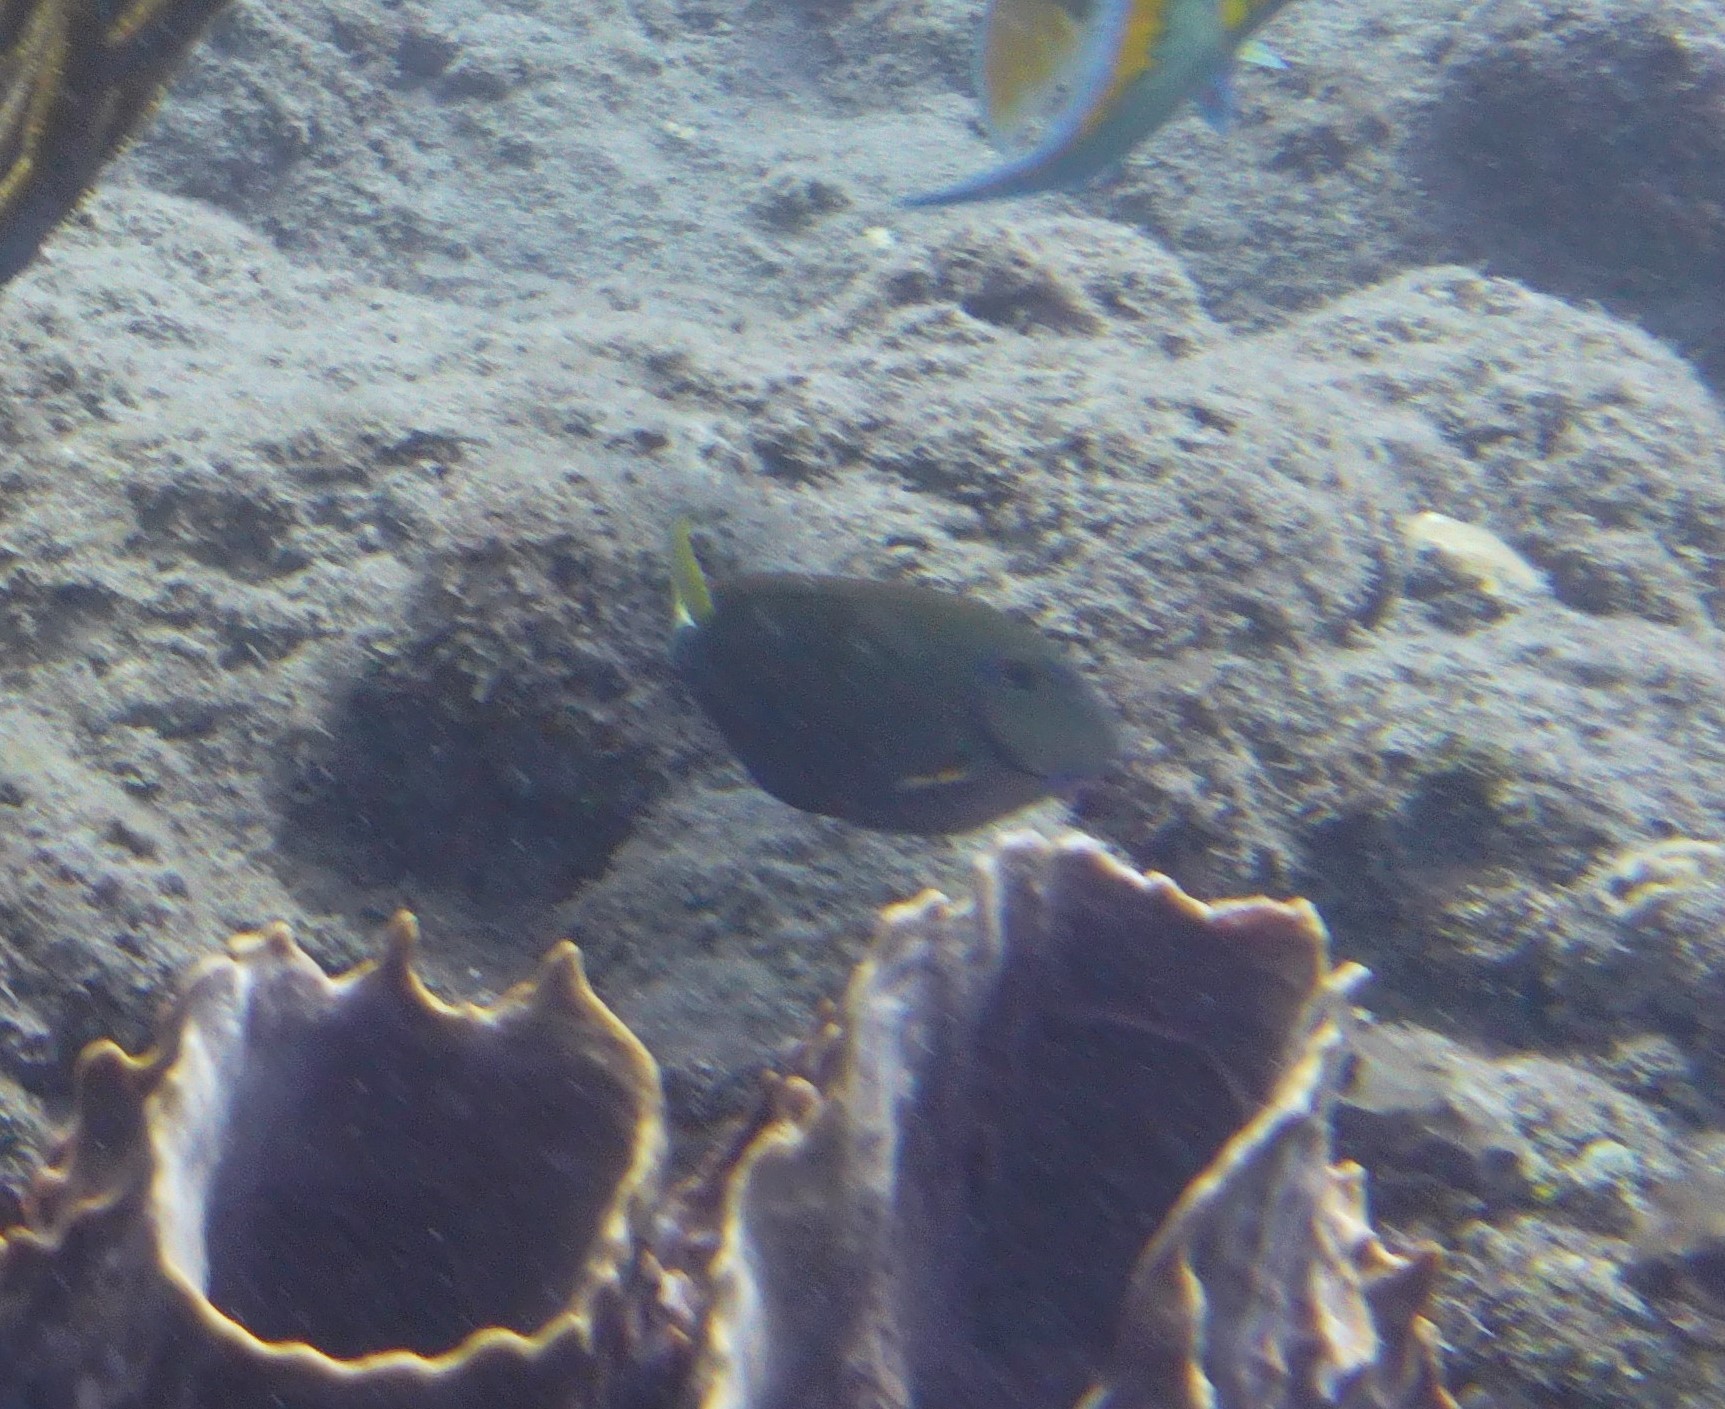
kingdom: Animalia
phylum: Chordata
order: Perciformes
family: Acanthuridae
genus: Acanthurus
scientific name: Acanthurus bahianus
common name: Ocean surgeon
